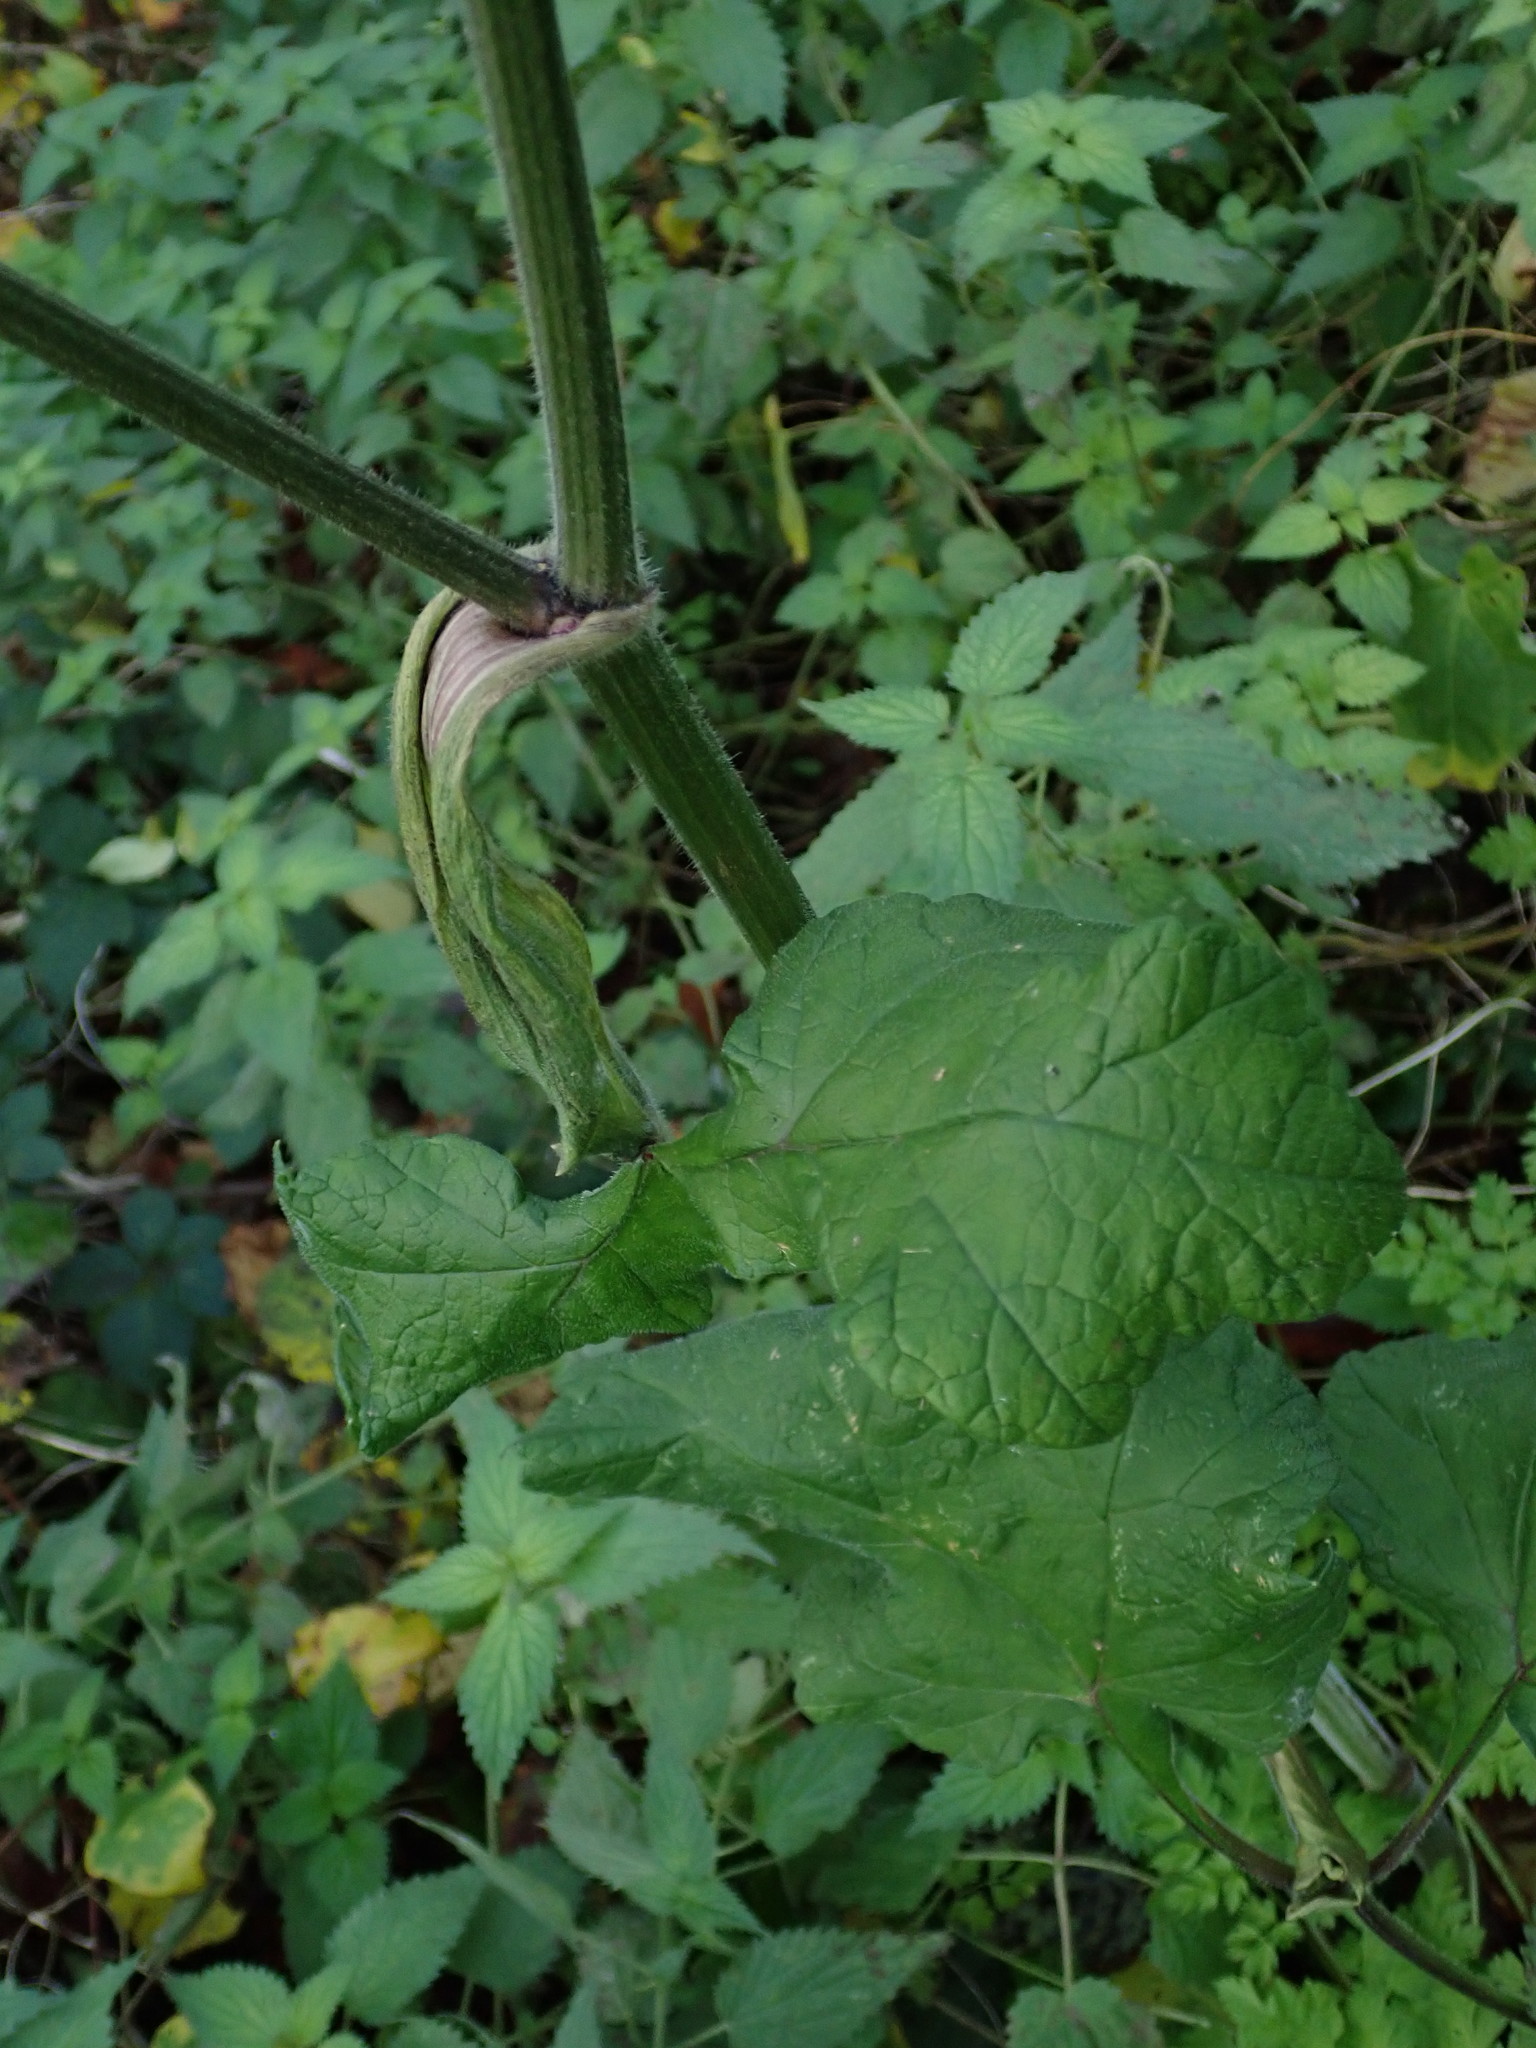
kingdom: Plantae
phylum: Tracheophyta
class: Magnoliopsida
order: Apiales
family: Apiaceae
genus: Heracleum
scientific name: Heracleum sphondylium
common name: Hogweed
